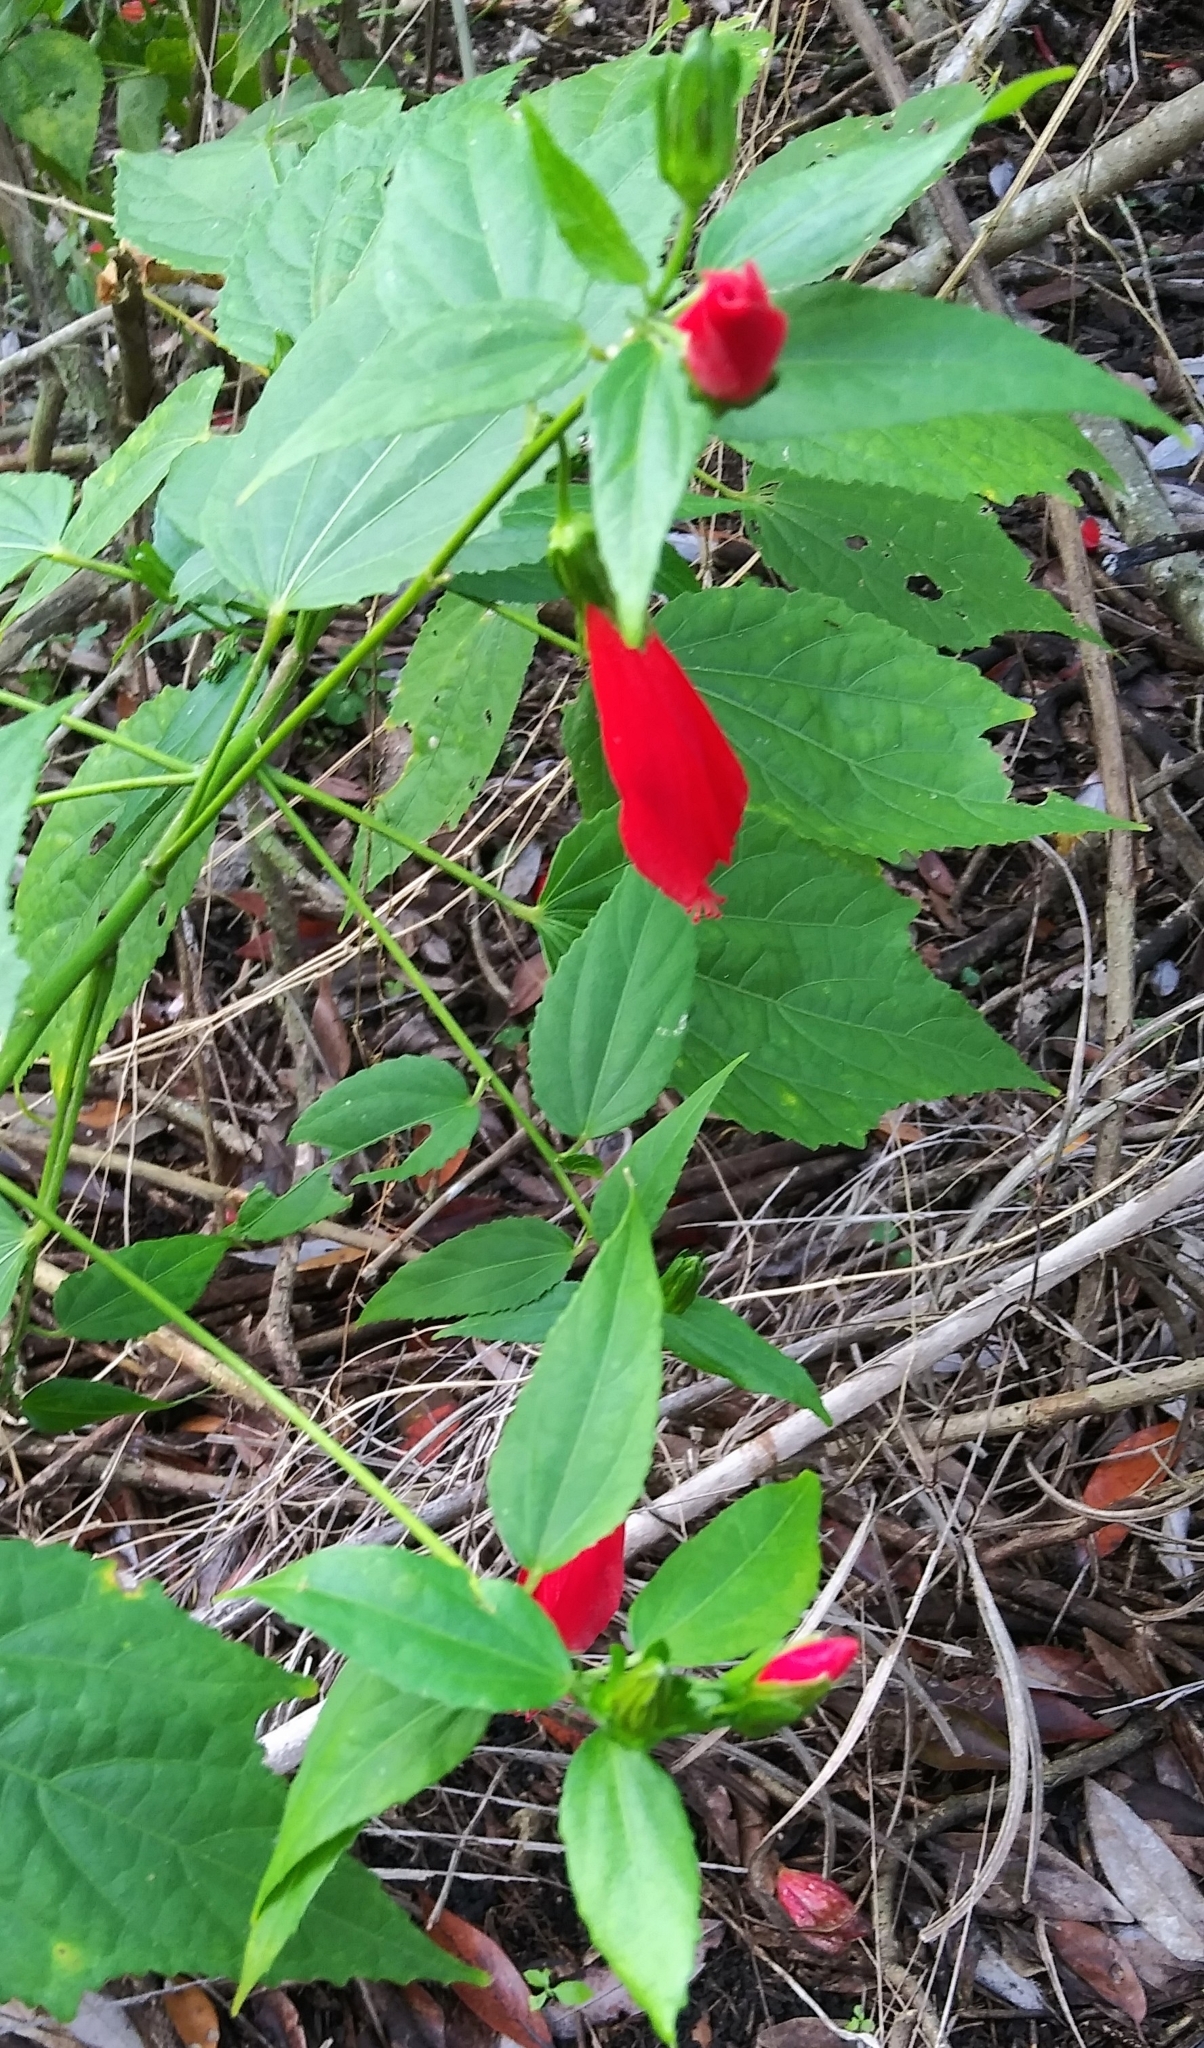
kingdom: Plantae
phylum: Tracheophyta
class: Magnoliopsida
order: Malvales
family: Malvaceae
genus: Malvaviscus
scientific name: Malvaviscus penduliflorus
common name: Mazapan
